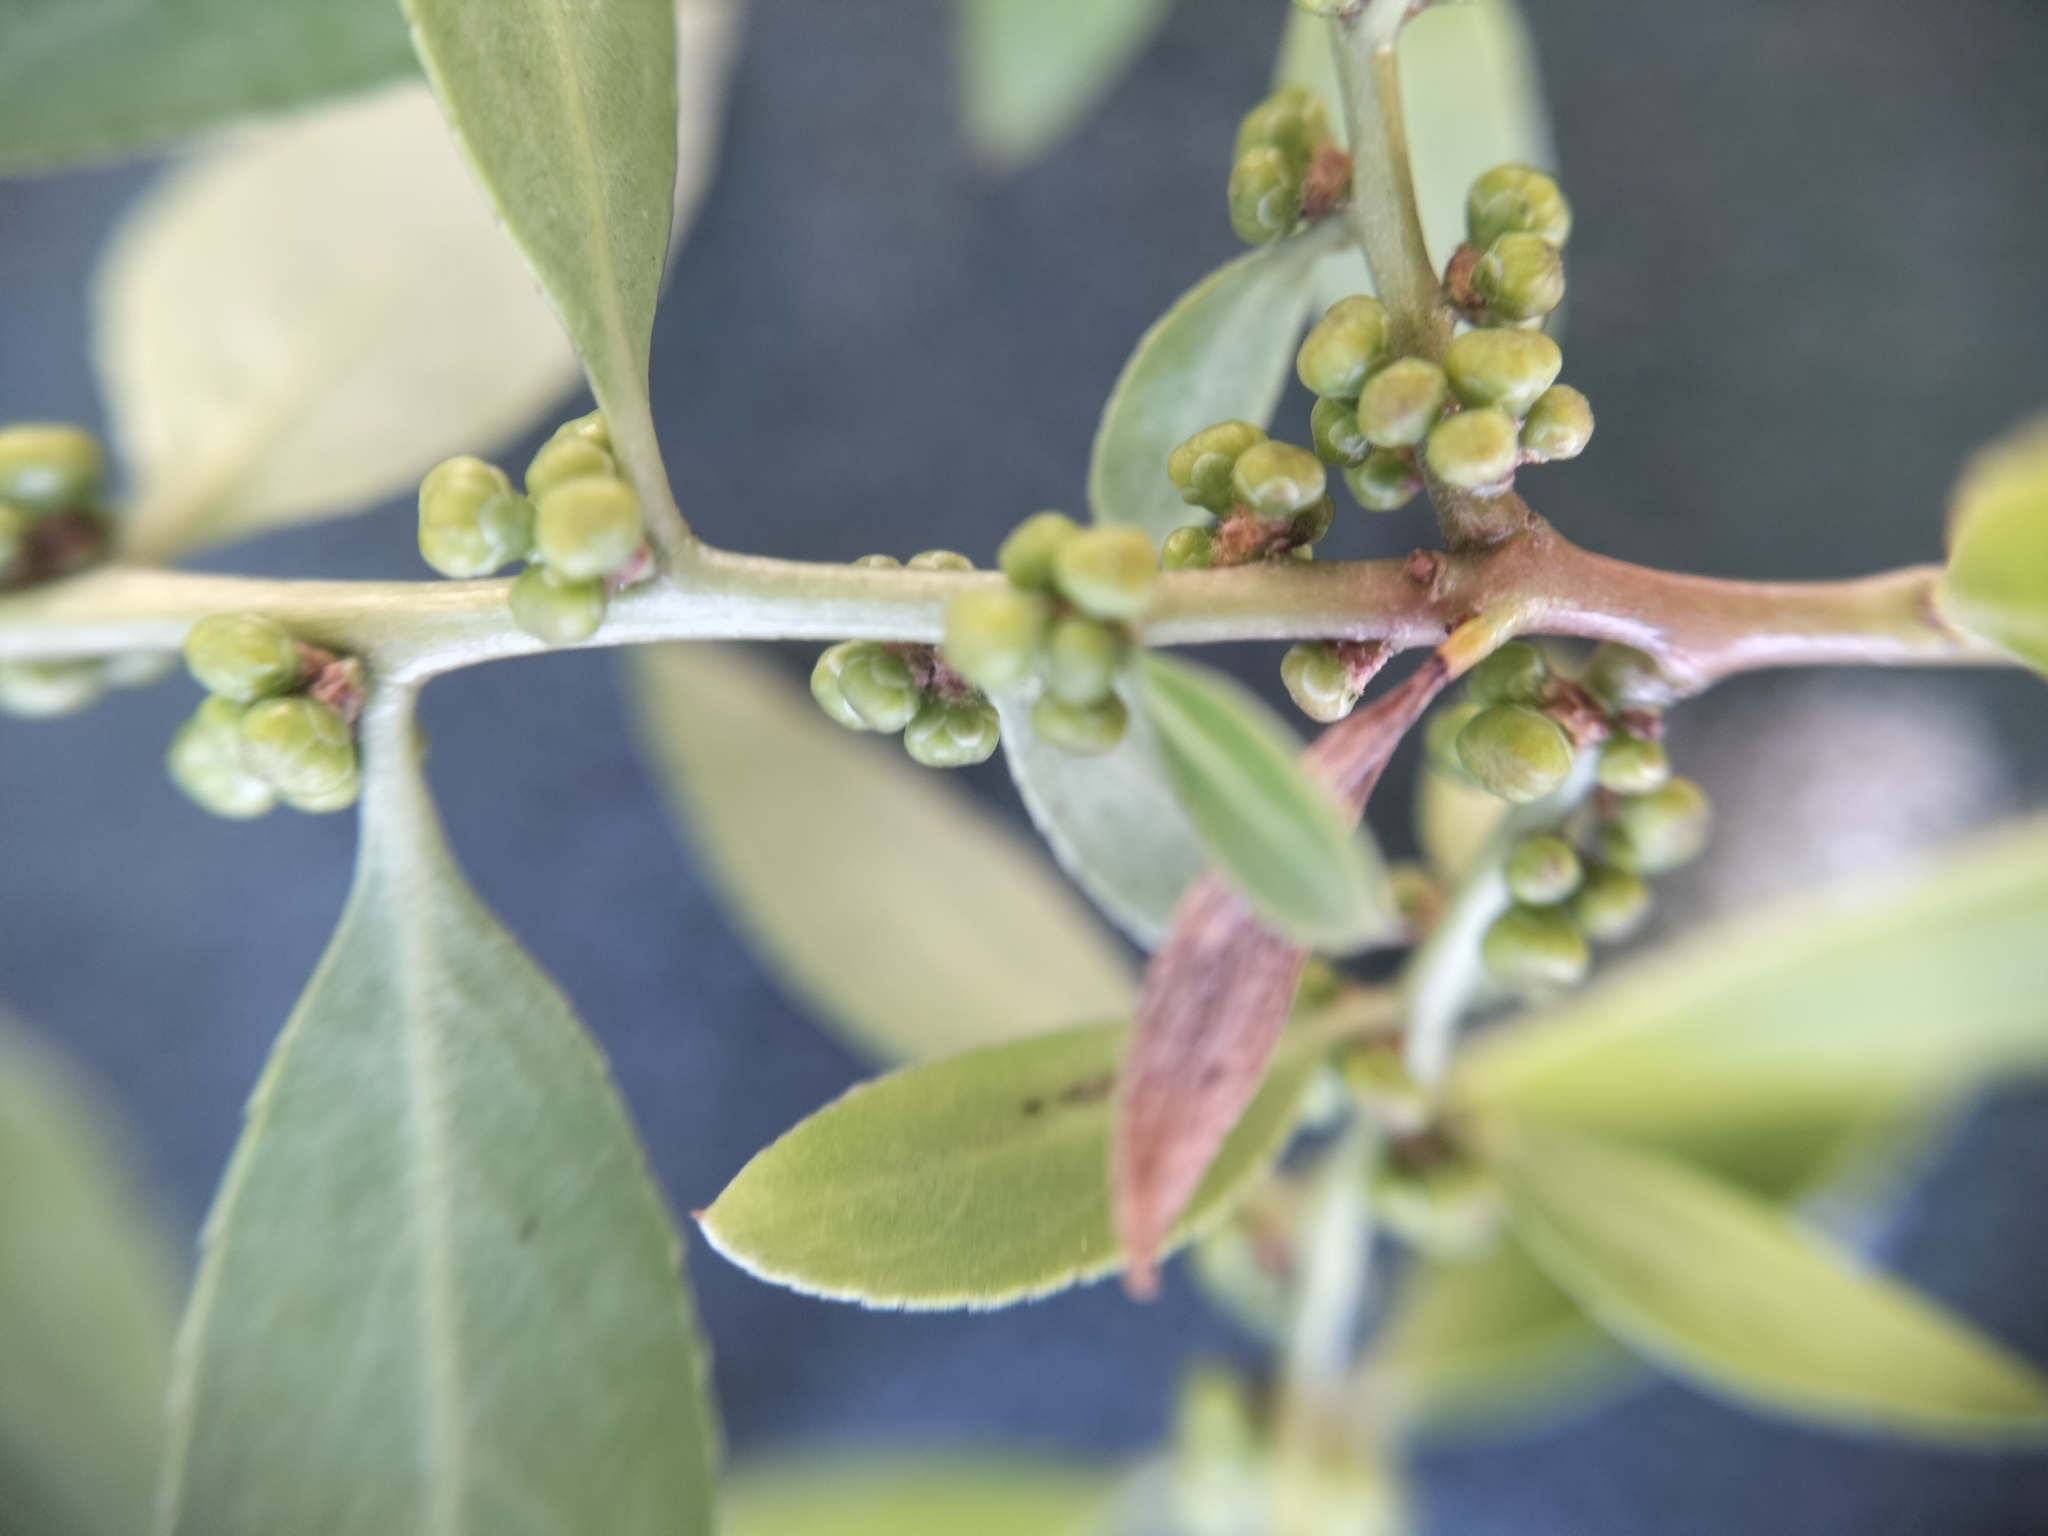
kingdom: Plantae
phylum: Tracheophyta
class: Magnoliopsida
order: Celastrales
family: Celastraceae
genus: Maytenus
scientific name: Maytenus boaria
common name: Mayten
